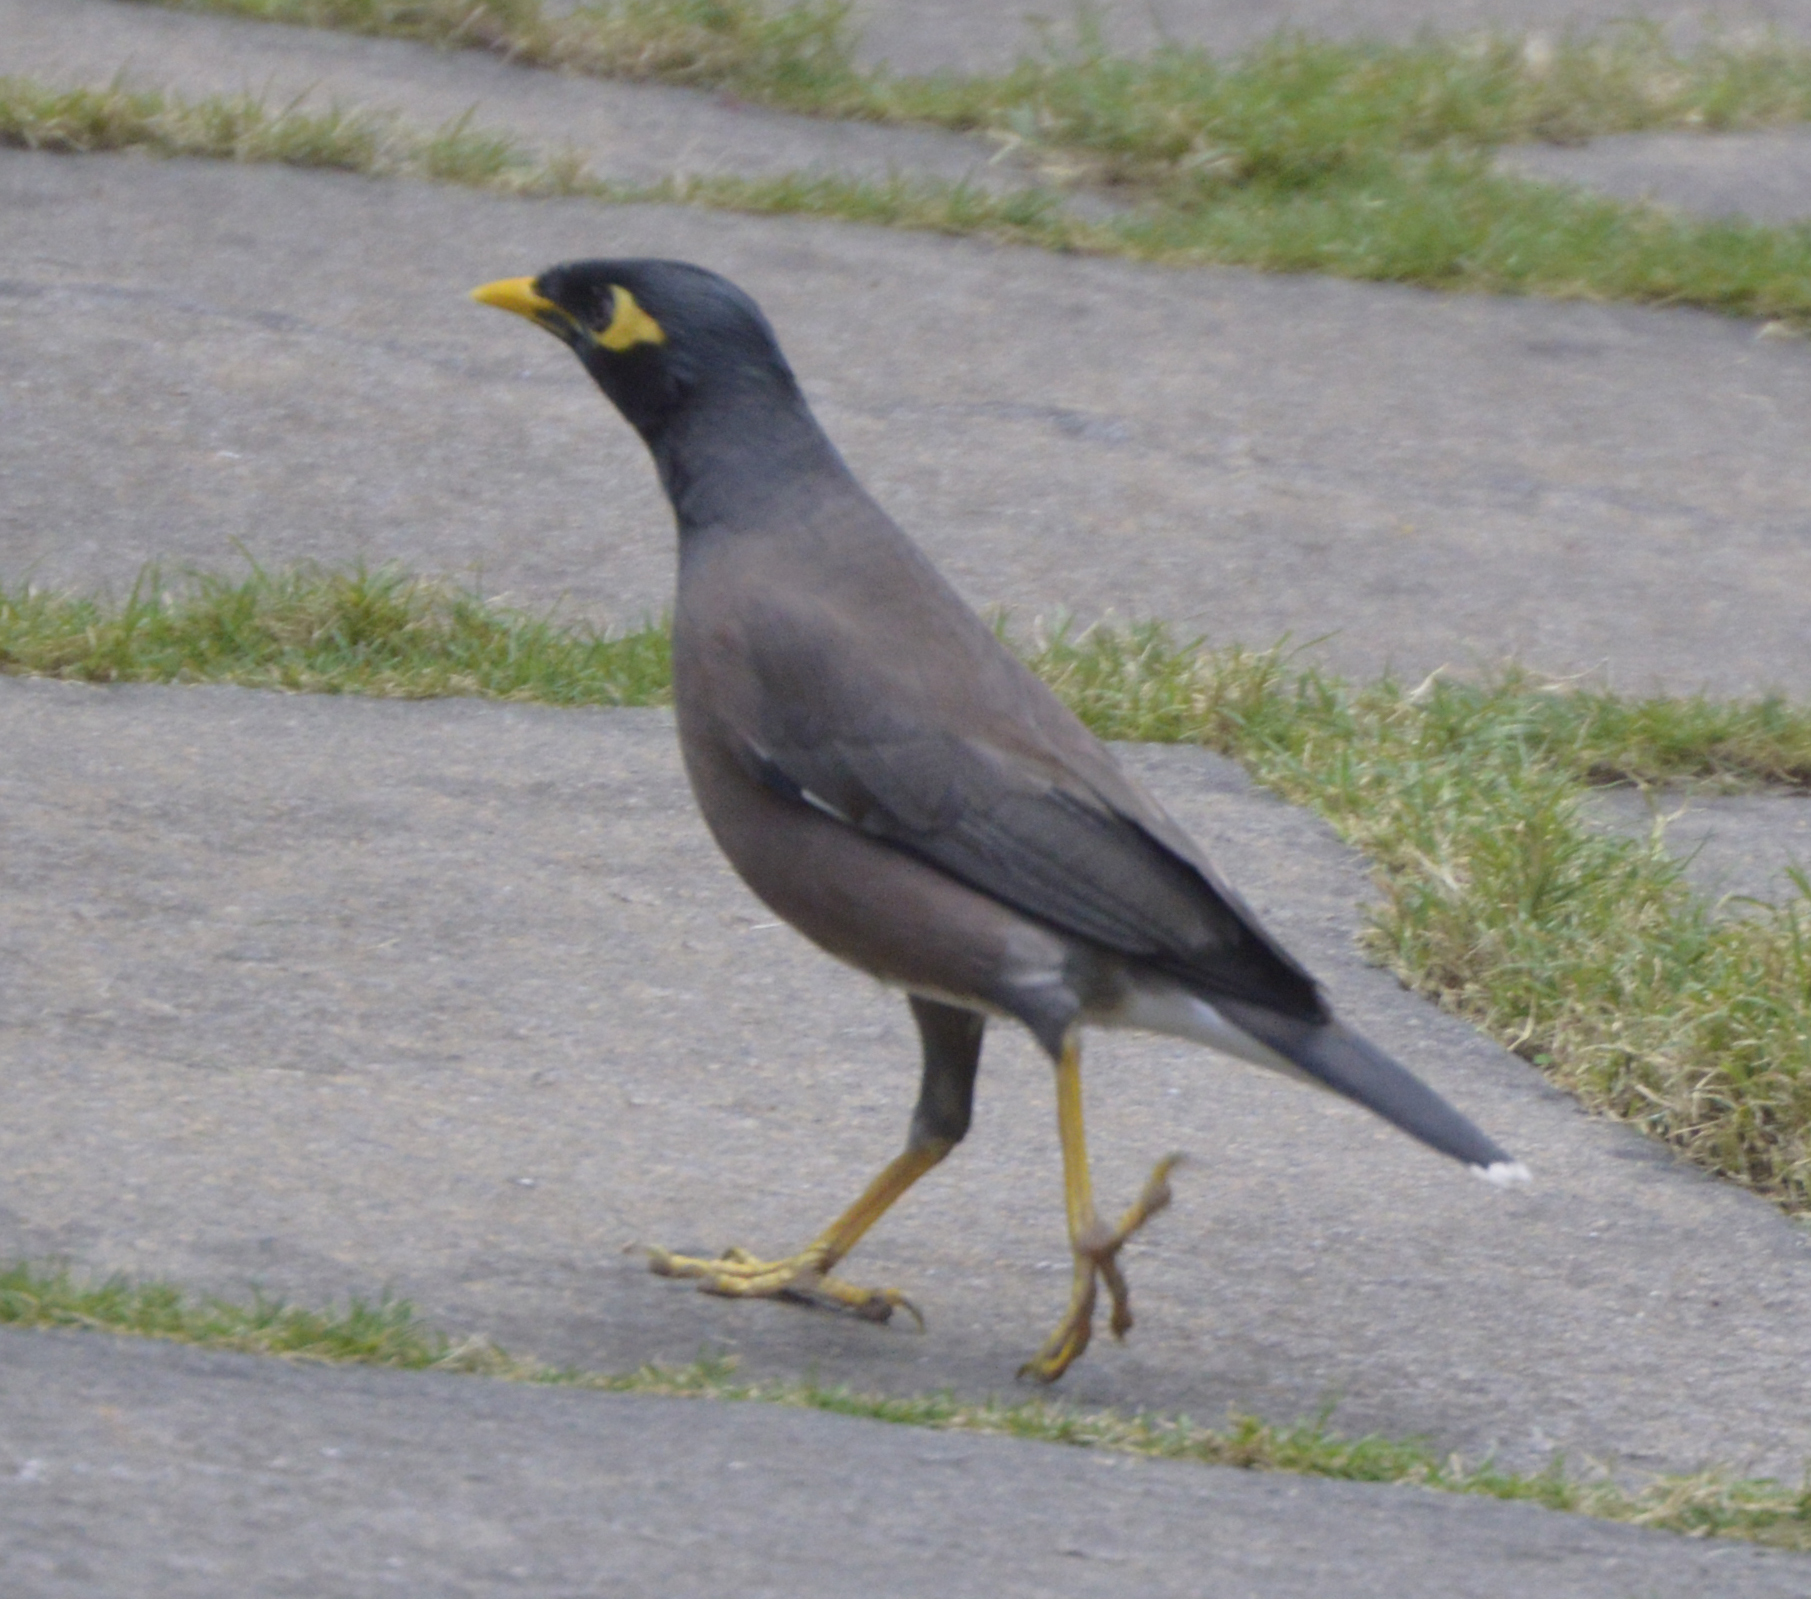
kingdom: Animalia
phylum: Chordata
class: Aves
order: Passeriformes
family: Sturnidae
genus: Acridotheres
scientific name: Acridotheres tristis
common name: Common myna
